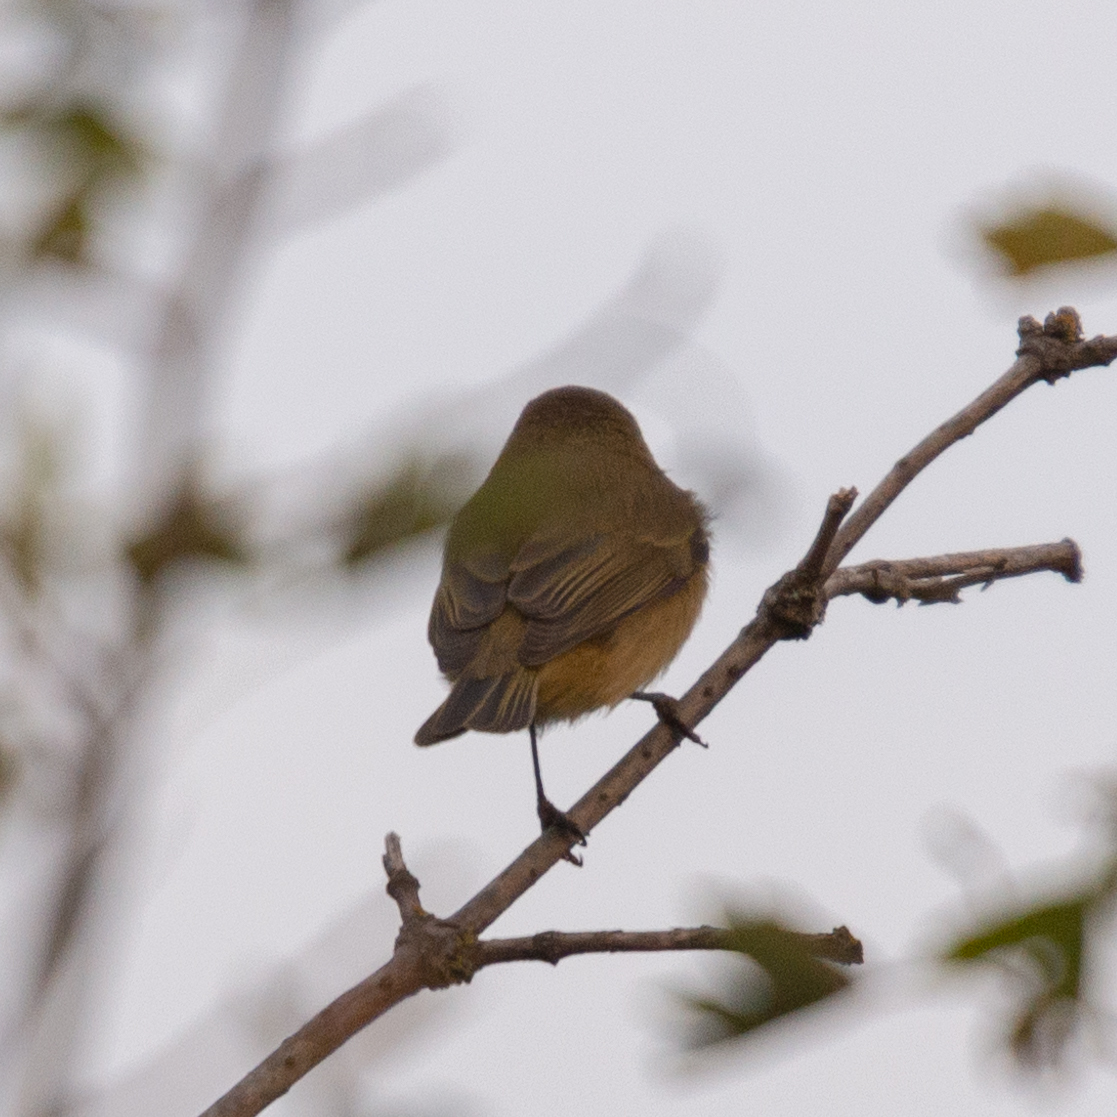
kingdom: Animalia
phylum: Chordata
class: Aves
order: Passeriformes
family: Phylloscopidae
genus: Phylloscopus
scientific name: Phylloscopus collybita
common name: Common chiffchaff
